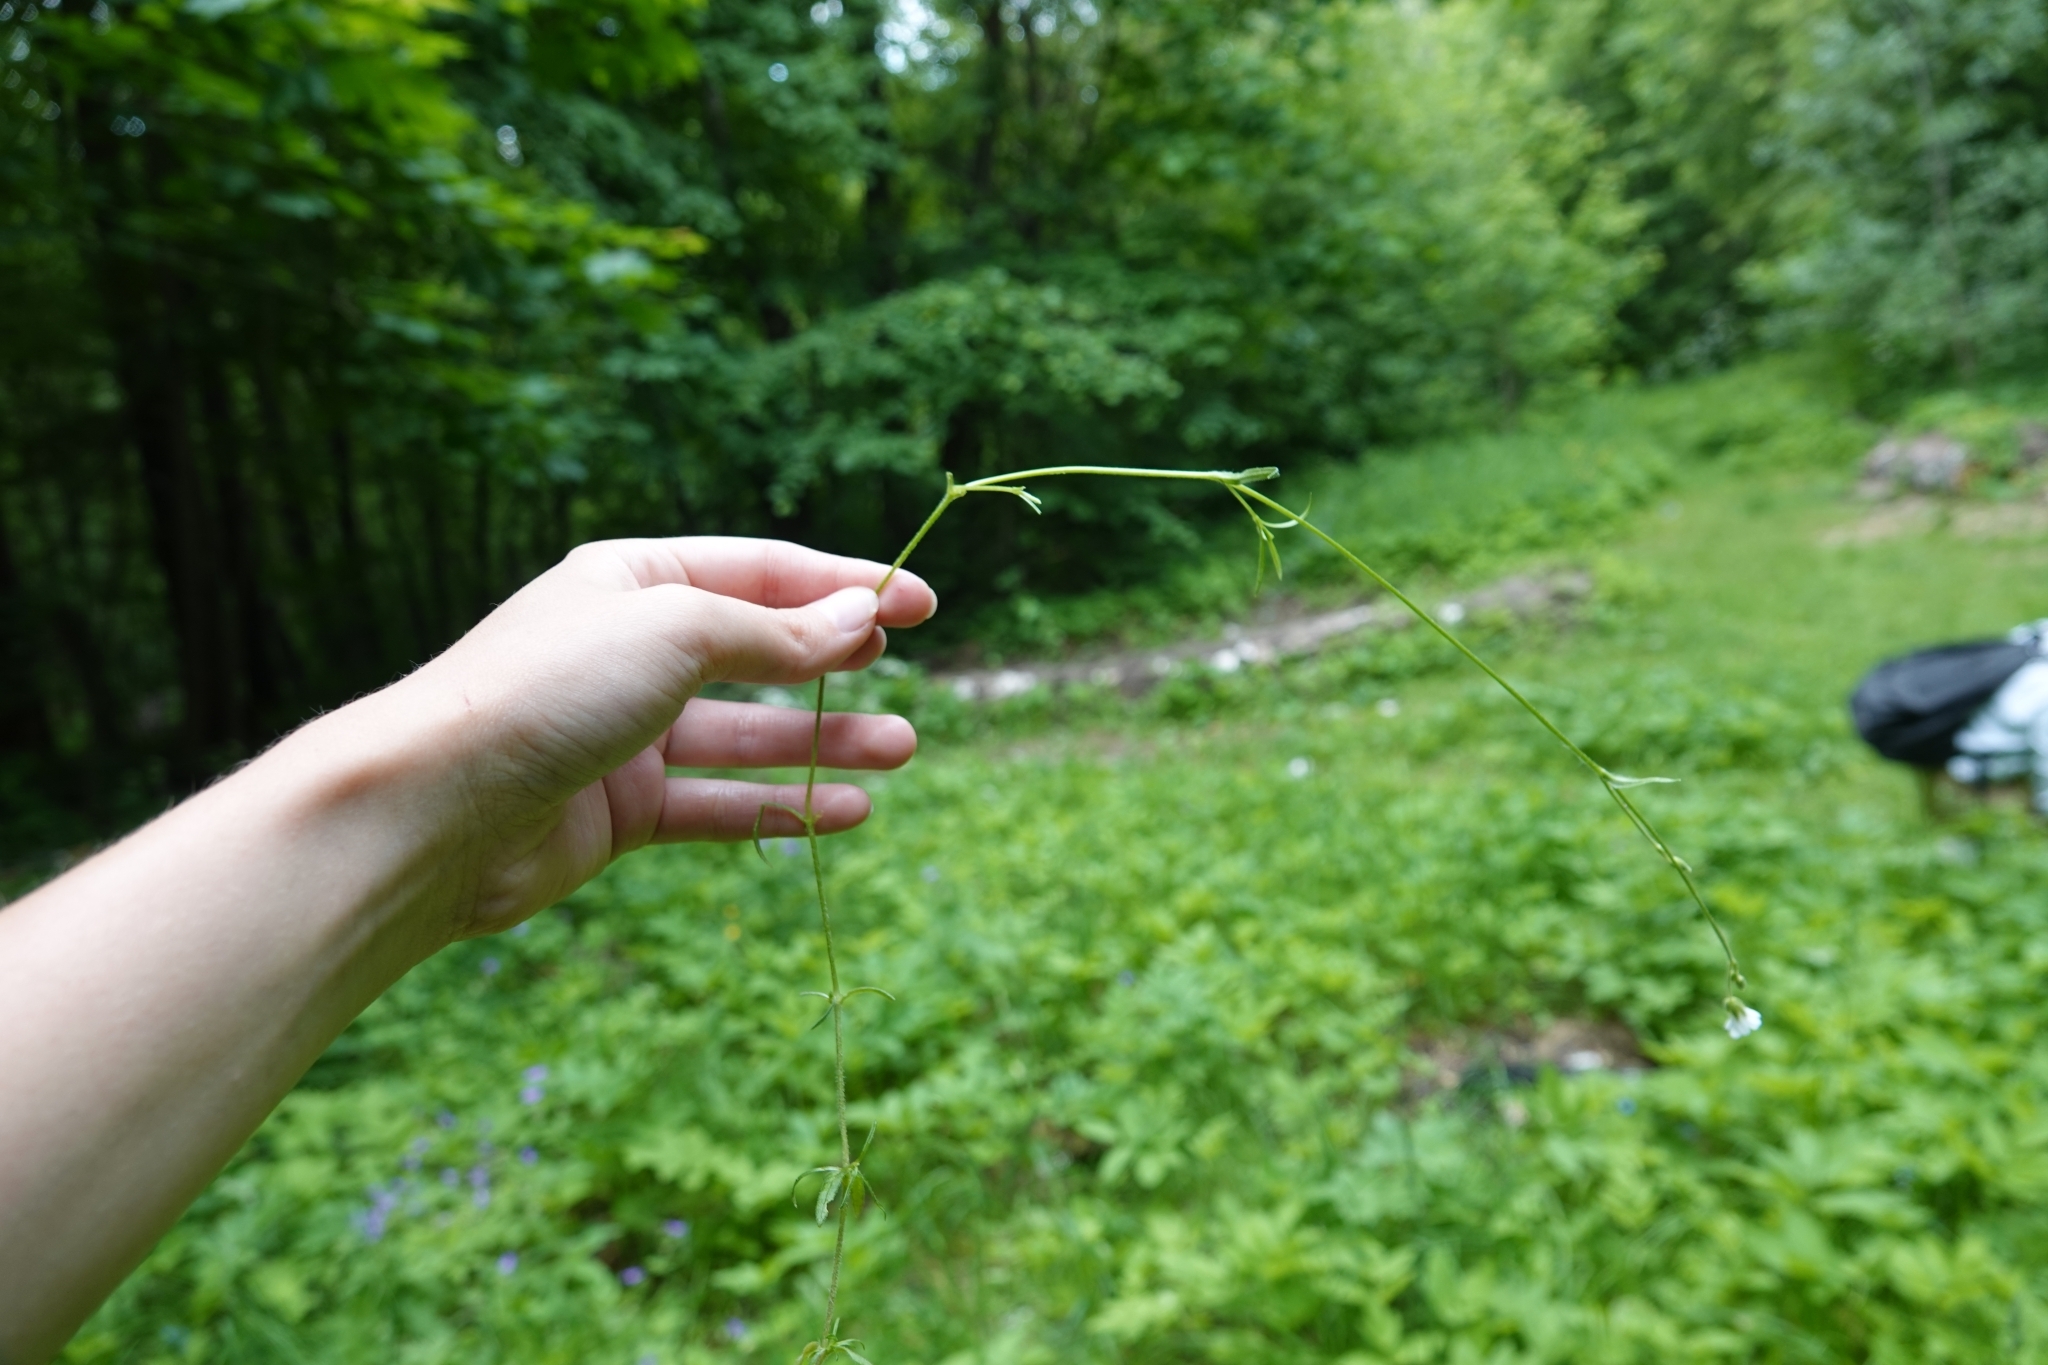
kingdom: Plantae
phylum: Tracheophyta
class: Magnoliopsida
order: Caryophyllales
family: Caryophyllaceae
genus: Cerastium
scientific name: Cerastium arvense
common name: Field mouse-ear
